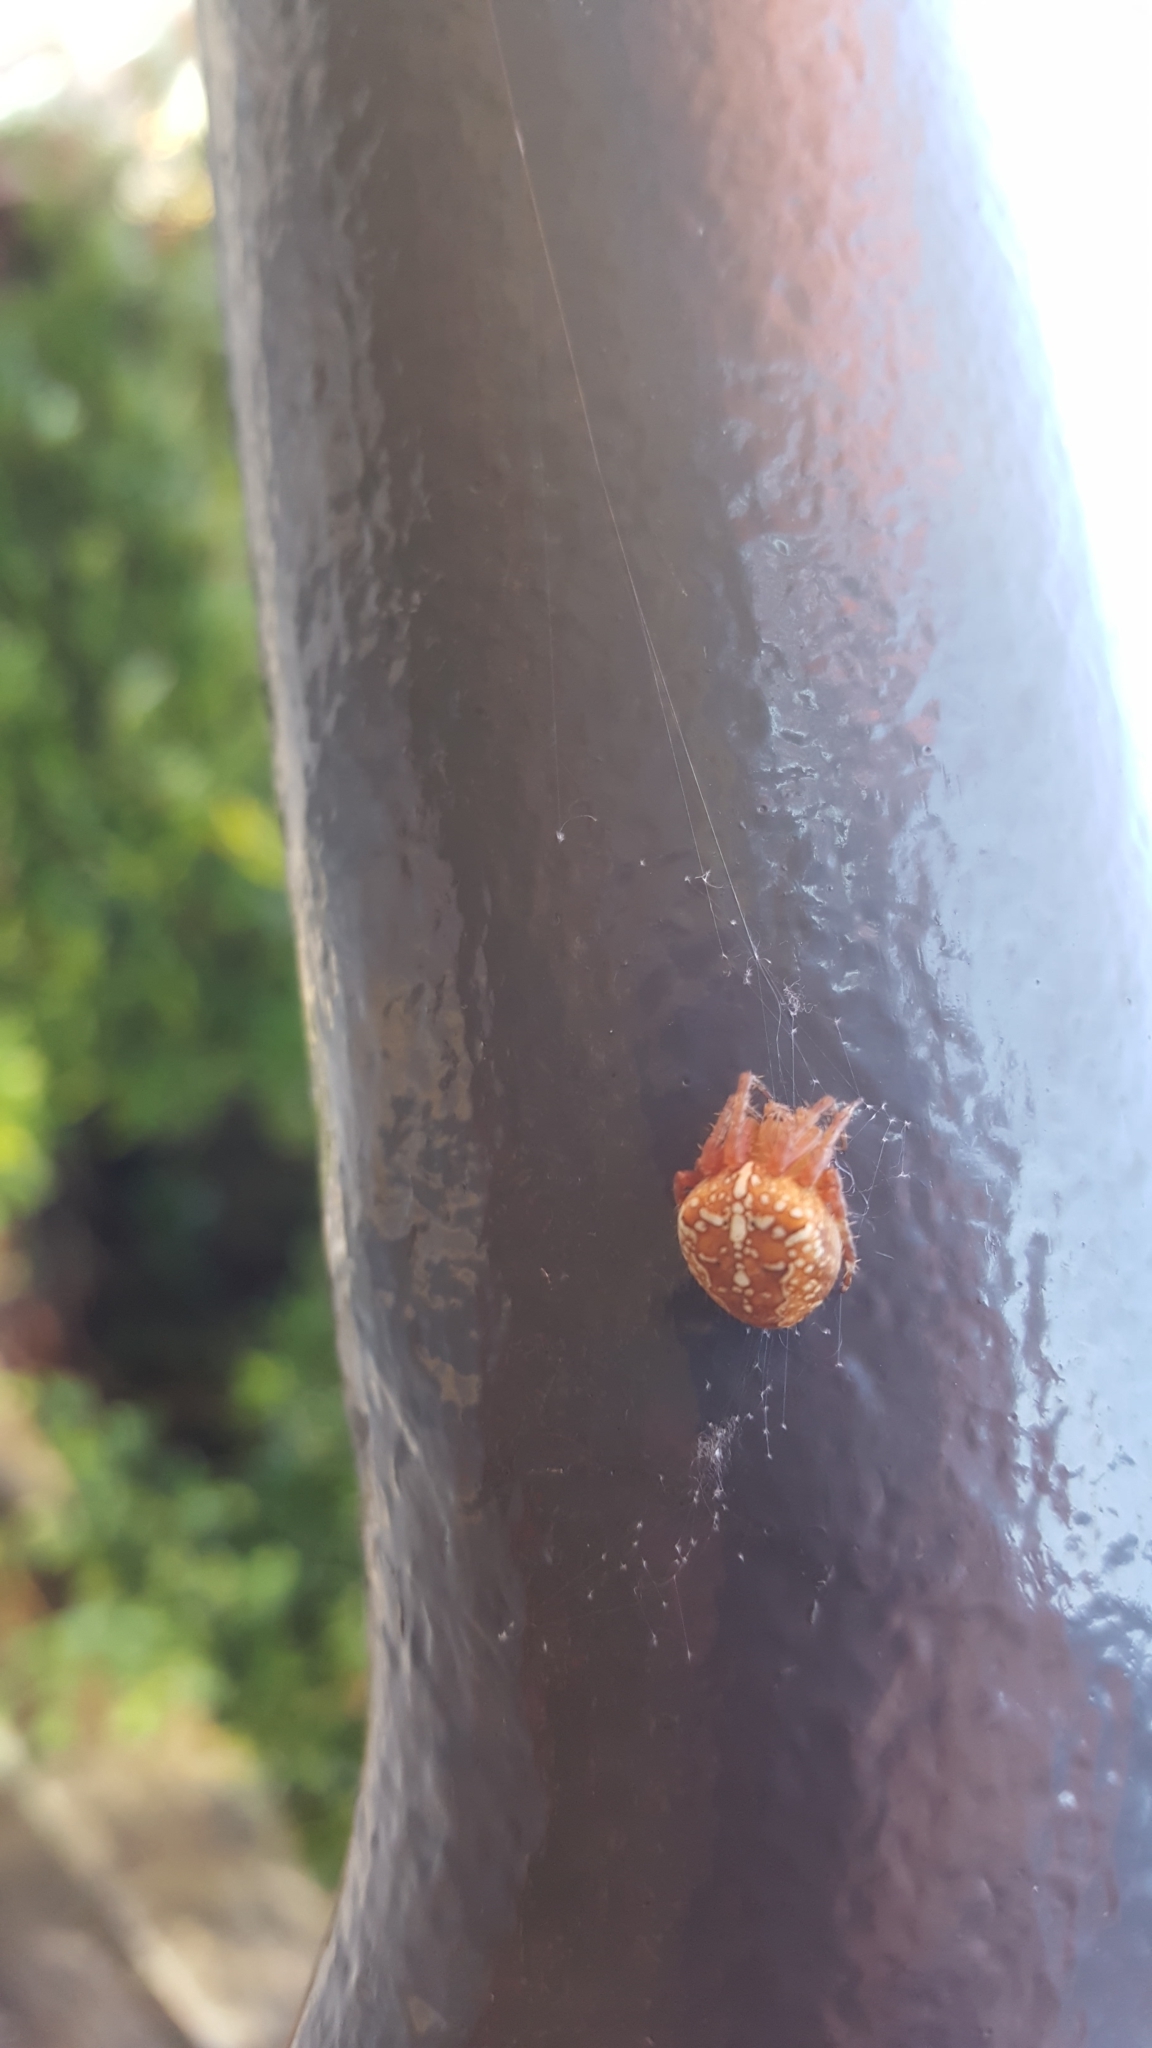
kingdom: Animalia
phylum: Arthropoda
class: Arachnida
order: Araneae
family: Araneidae
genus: Araneus
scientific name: Araneus diadematus
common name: Cross orbweaver
